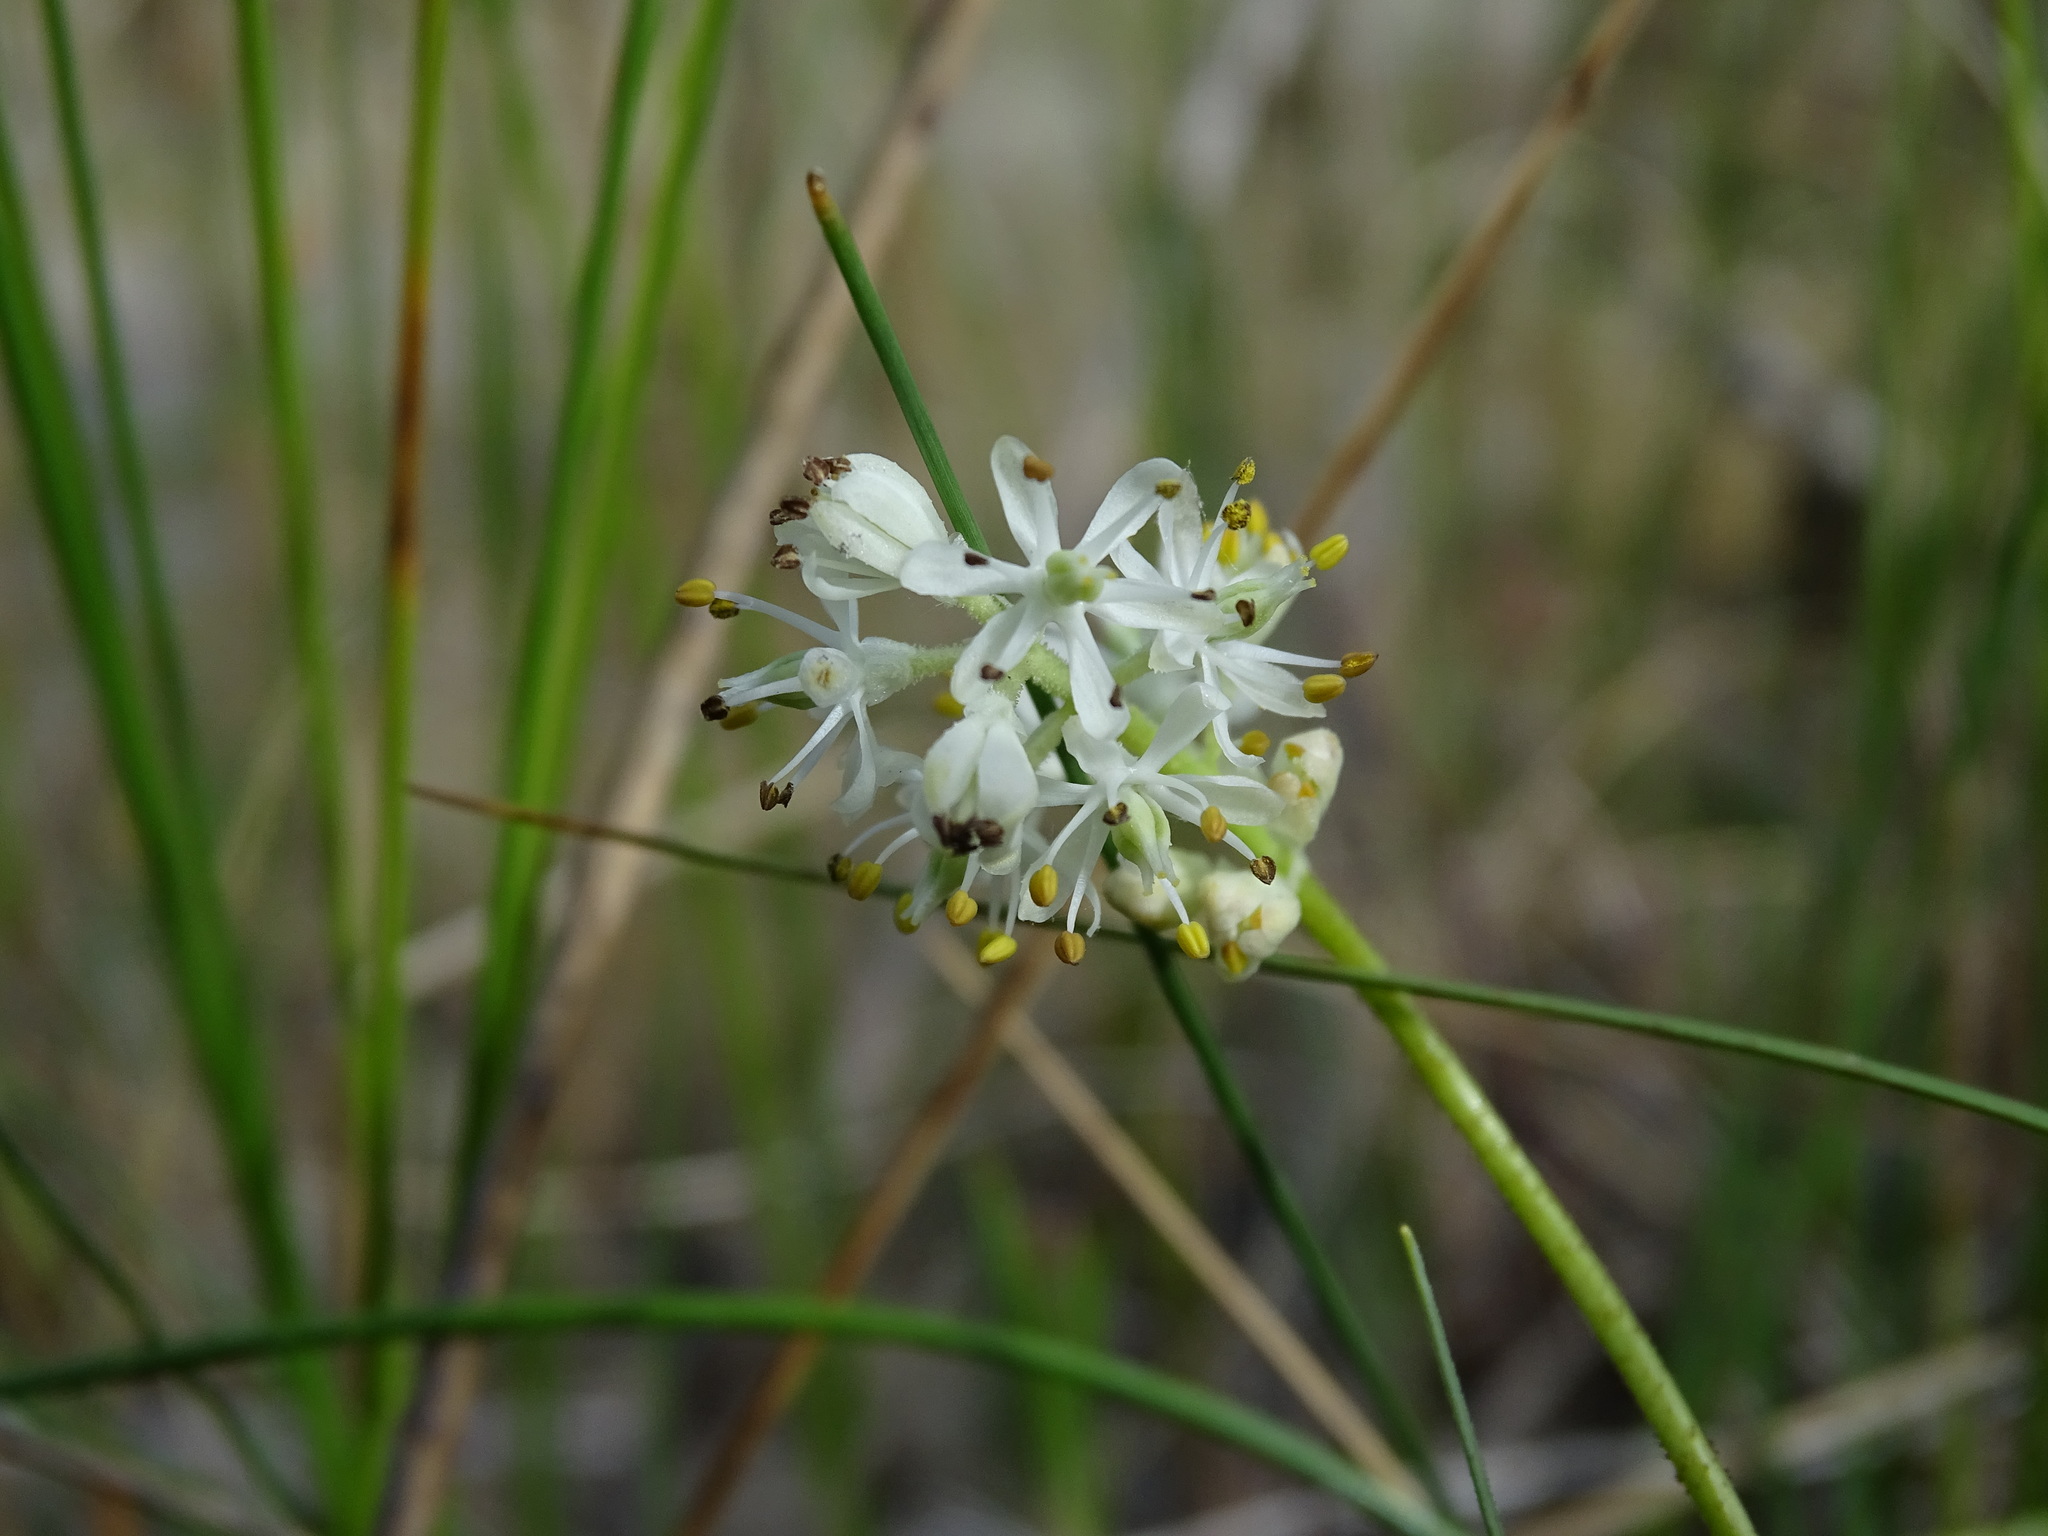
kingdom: Plantae
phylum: Tracheophyta
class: Liliopsida
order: Alismatales
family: Tofieldiaceae
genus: Triantha
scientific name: Triantha glutinosa
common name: Glutinous tofieldia
